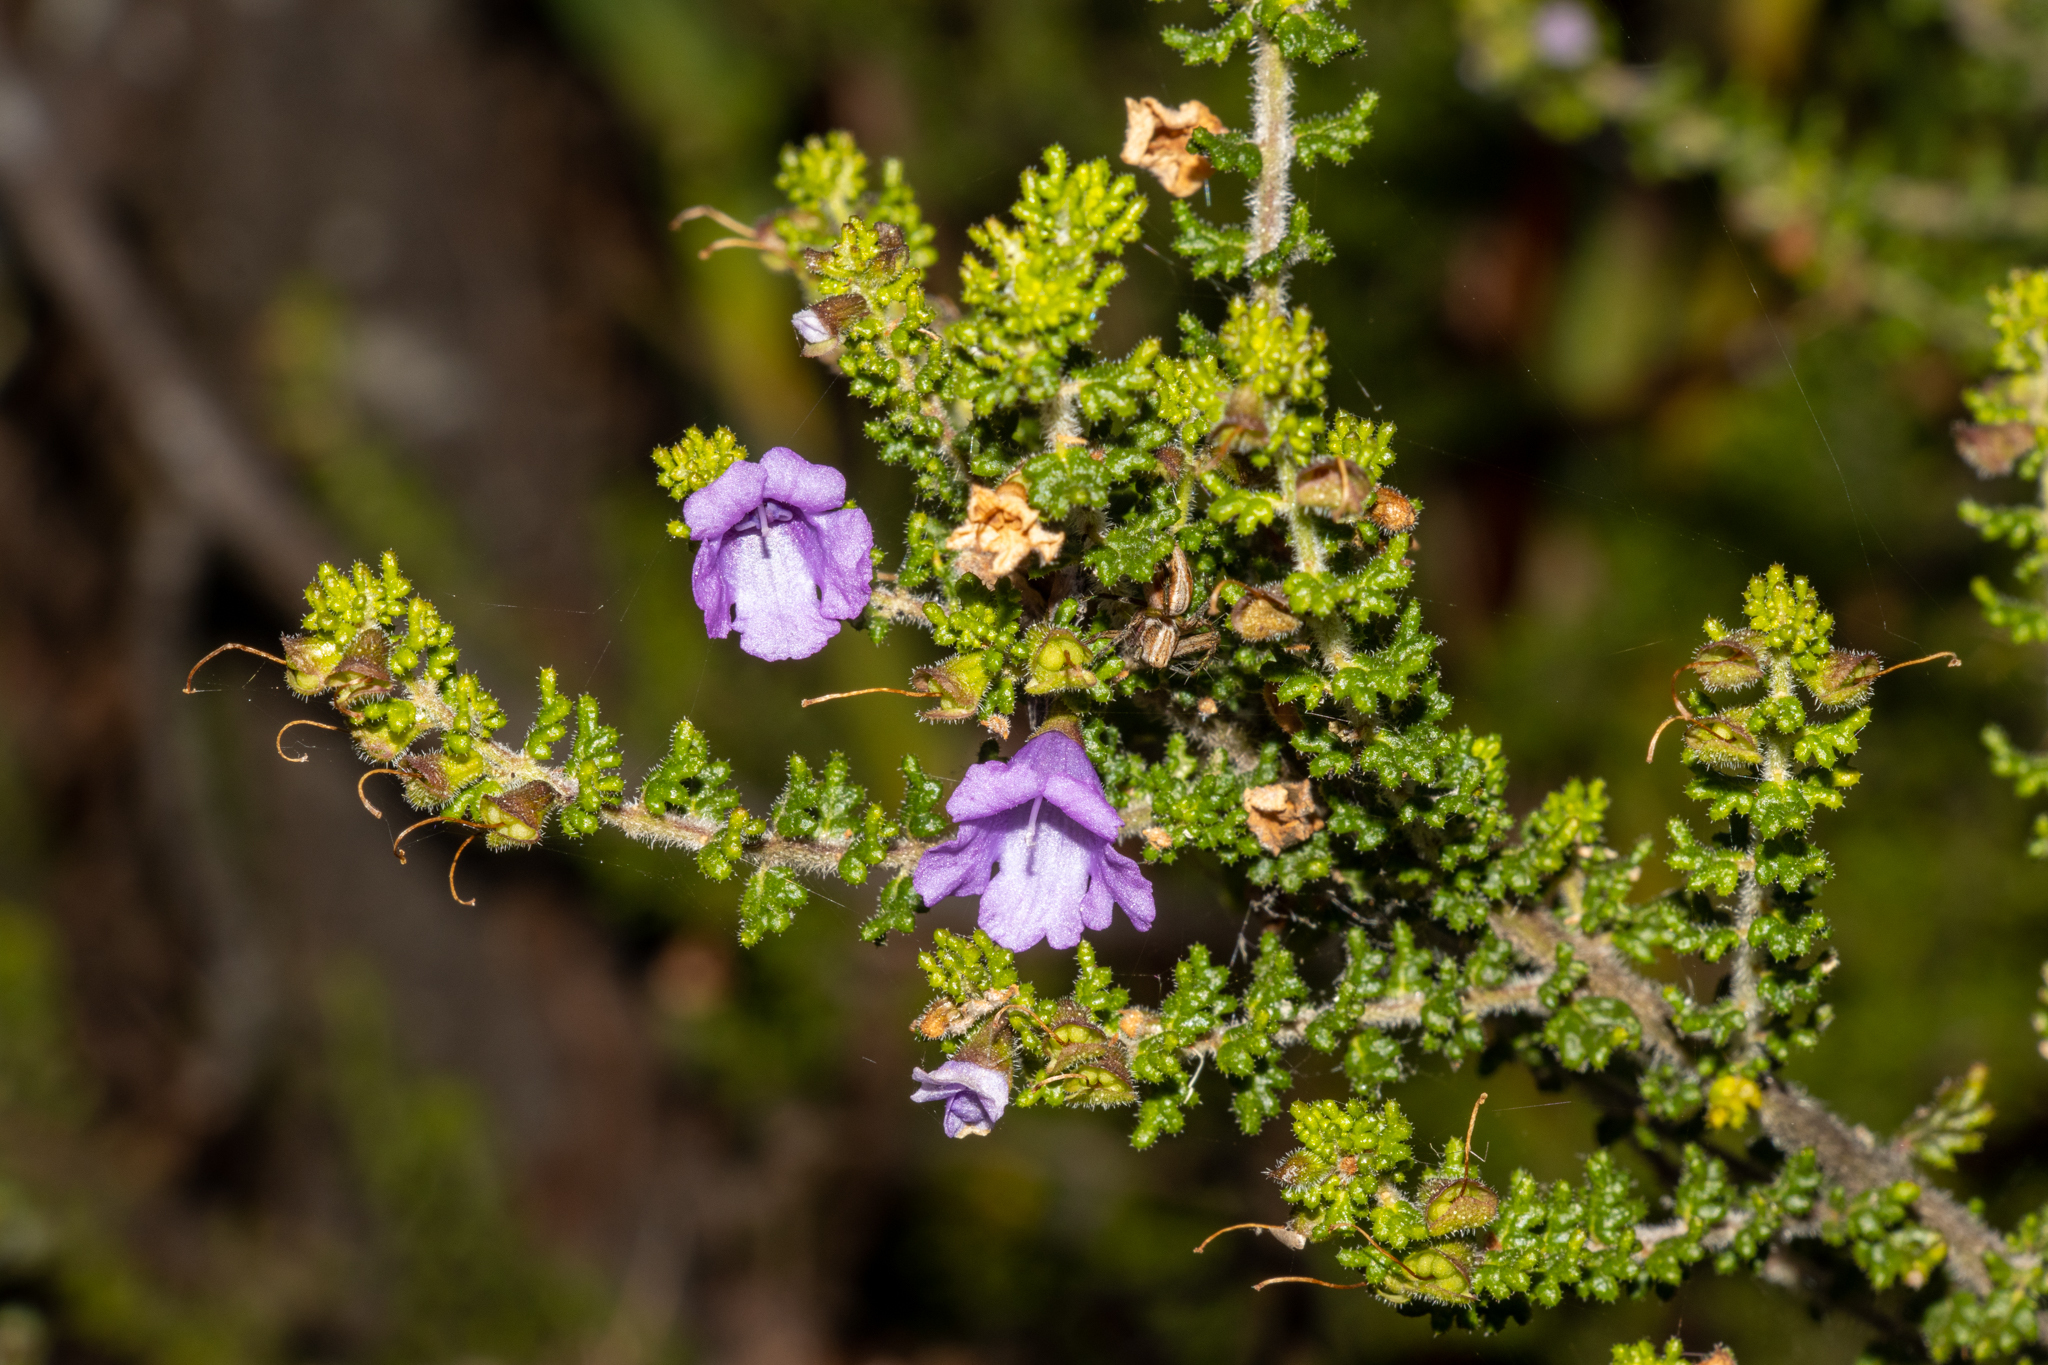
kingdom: Plantae
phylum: Tracheophyta
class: Magnoliopsida
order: Lamiales
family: Lamiaceae
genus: Prostanthera
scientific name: Prostanthera rugosa
